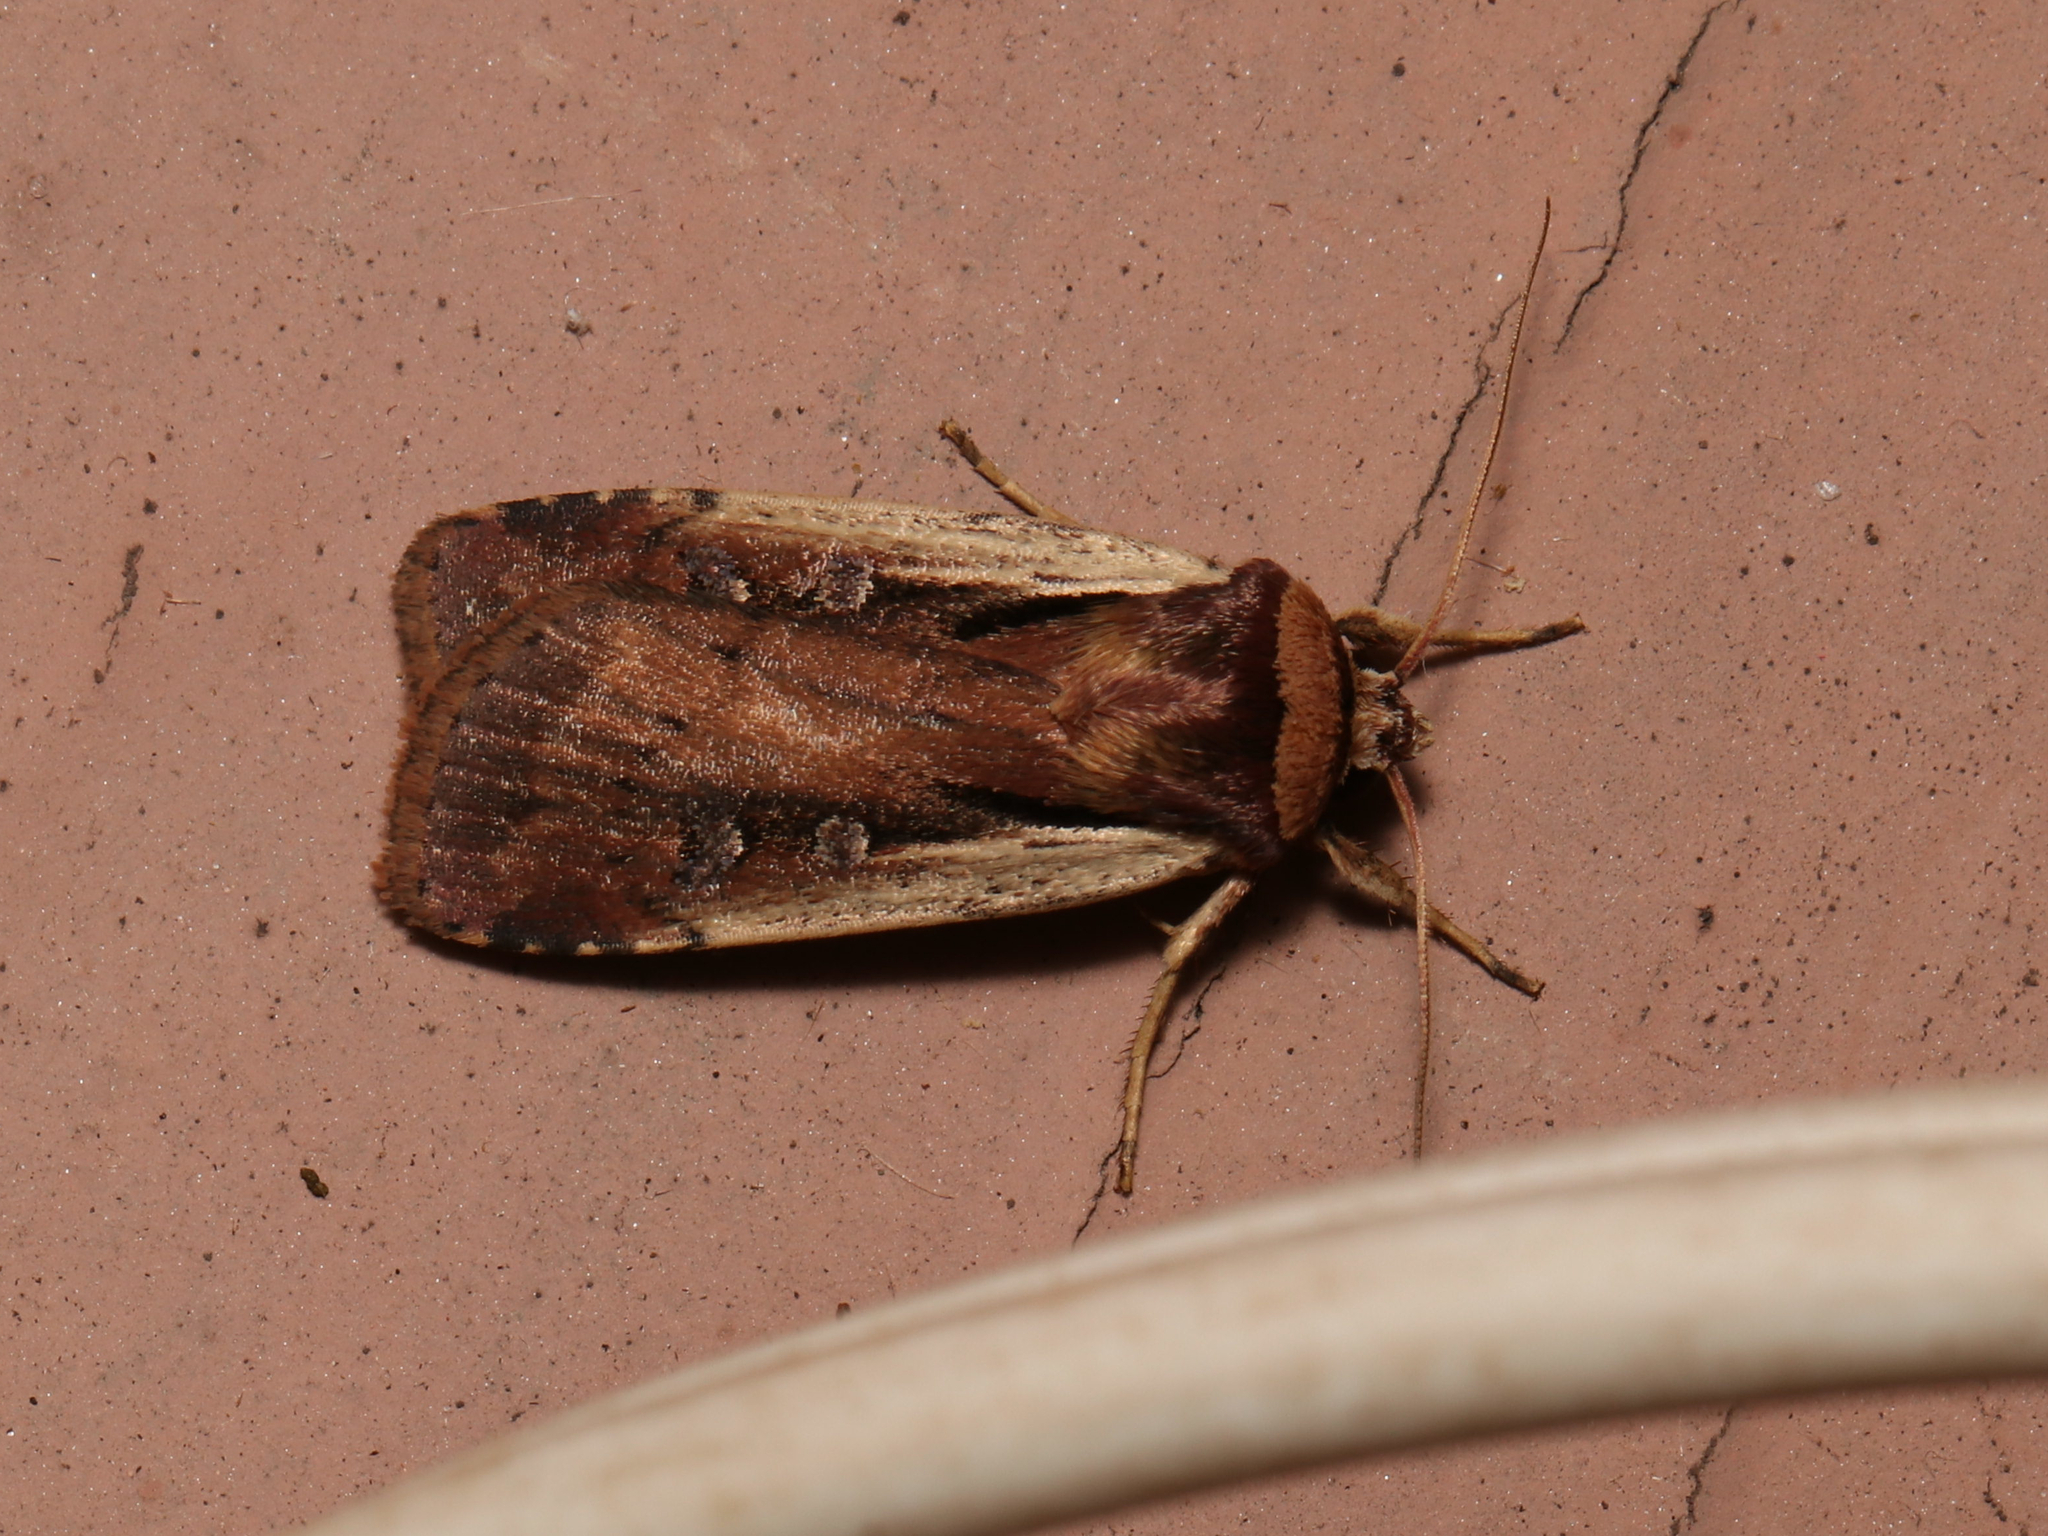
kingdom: Animalia
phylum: Arthropoda
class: Insecta
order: Lepidoptera
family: Noctuidae
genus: Ochropleura
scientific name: Ochropleura implecta
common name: Flame-shouldered dart
